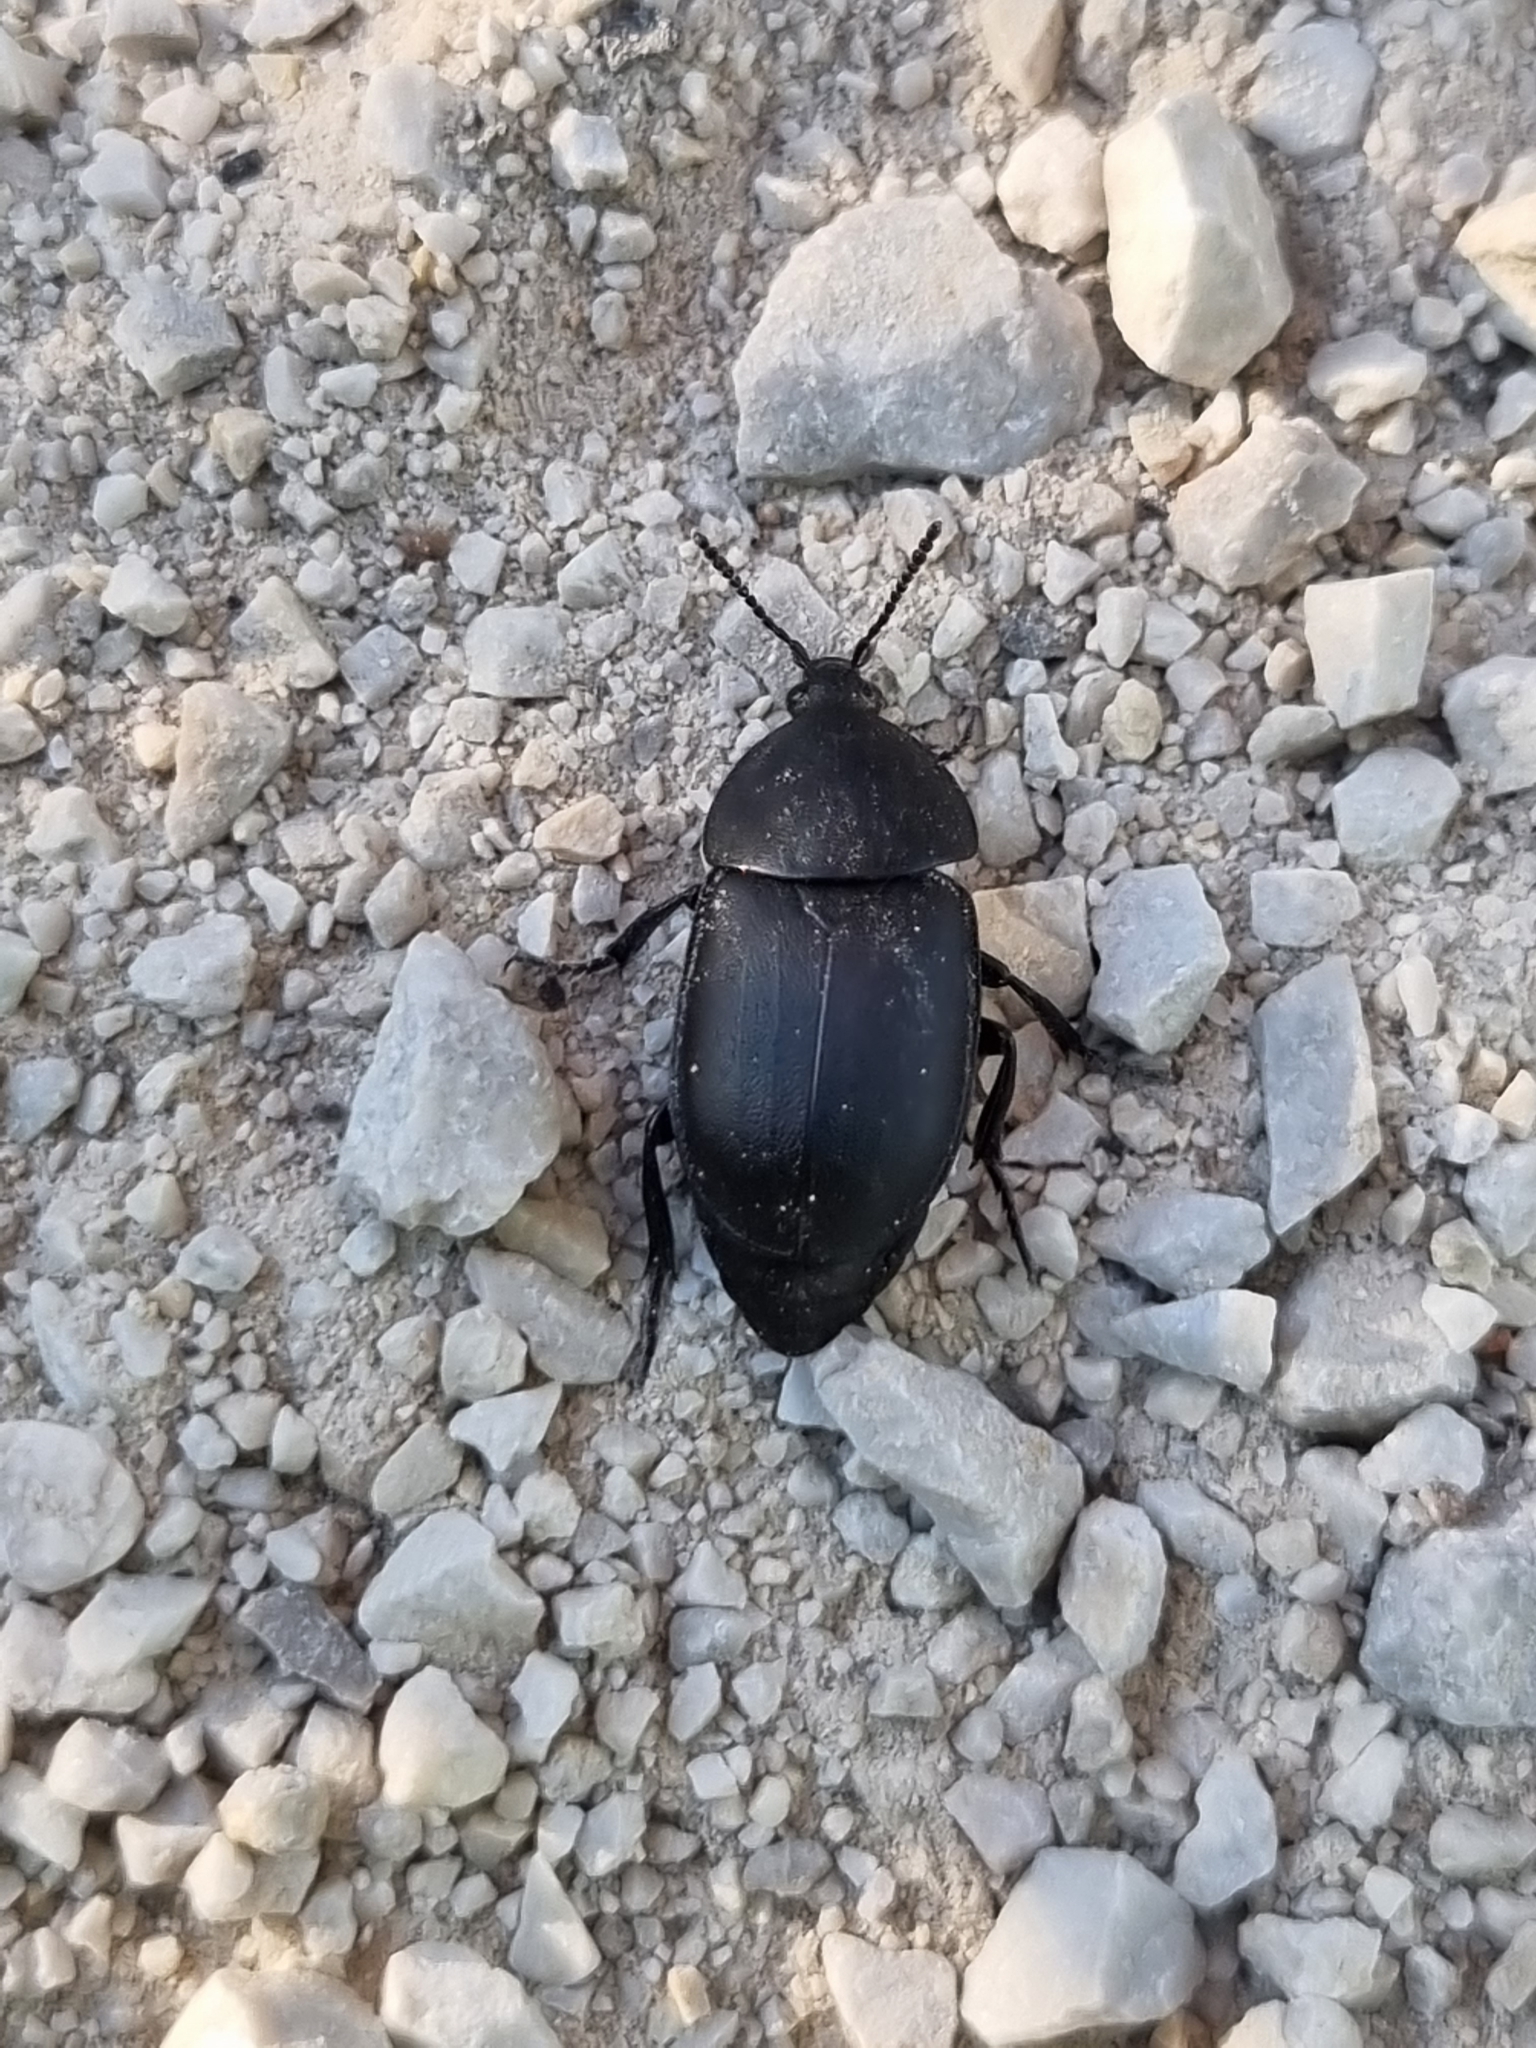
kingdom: Animalia
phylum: Arthropoda
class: Insecta
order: Coleoptera
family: Staphylinidae
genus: Silpha
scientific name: Silpha laevigata
